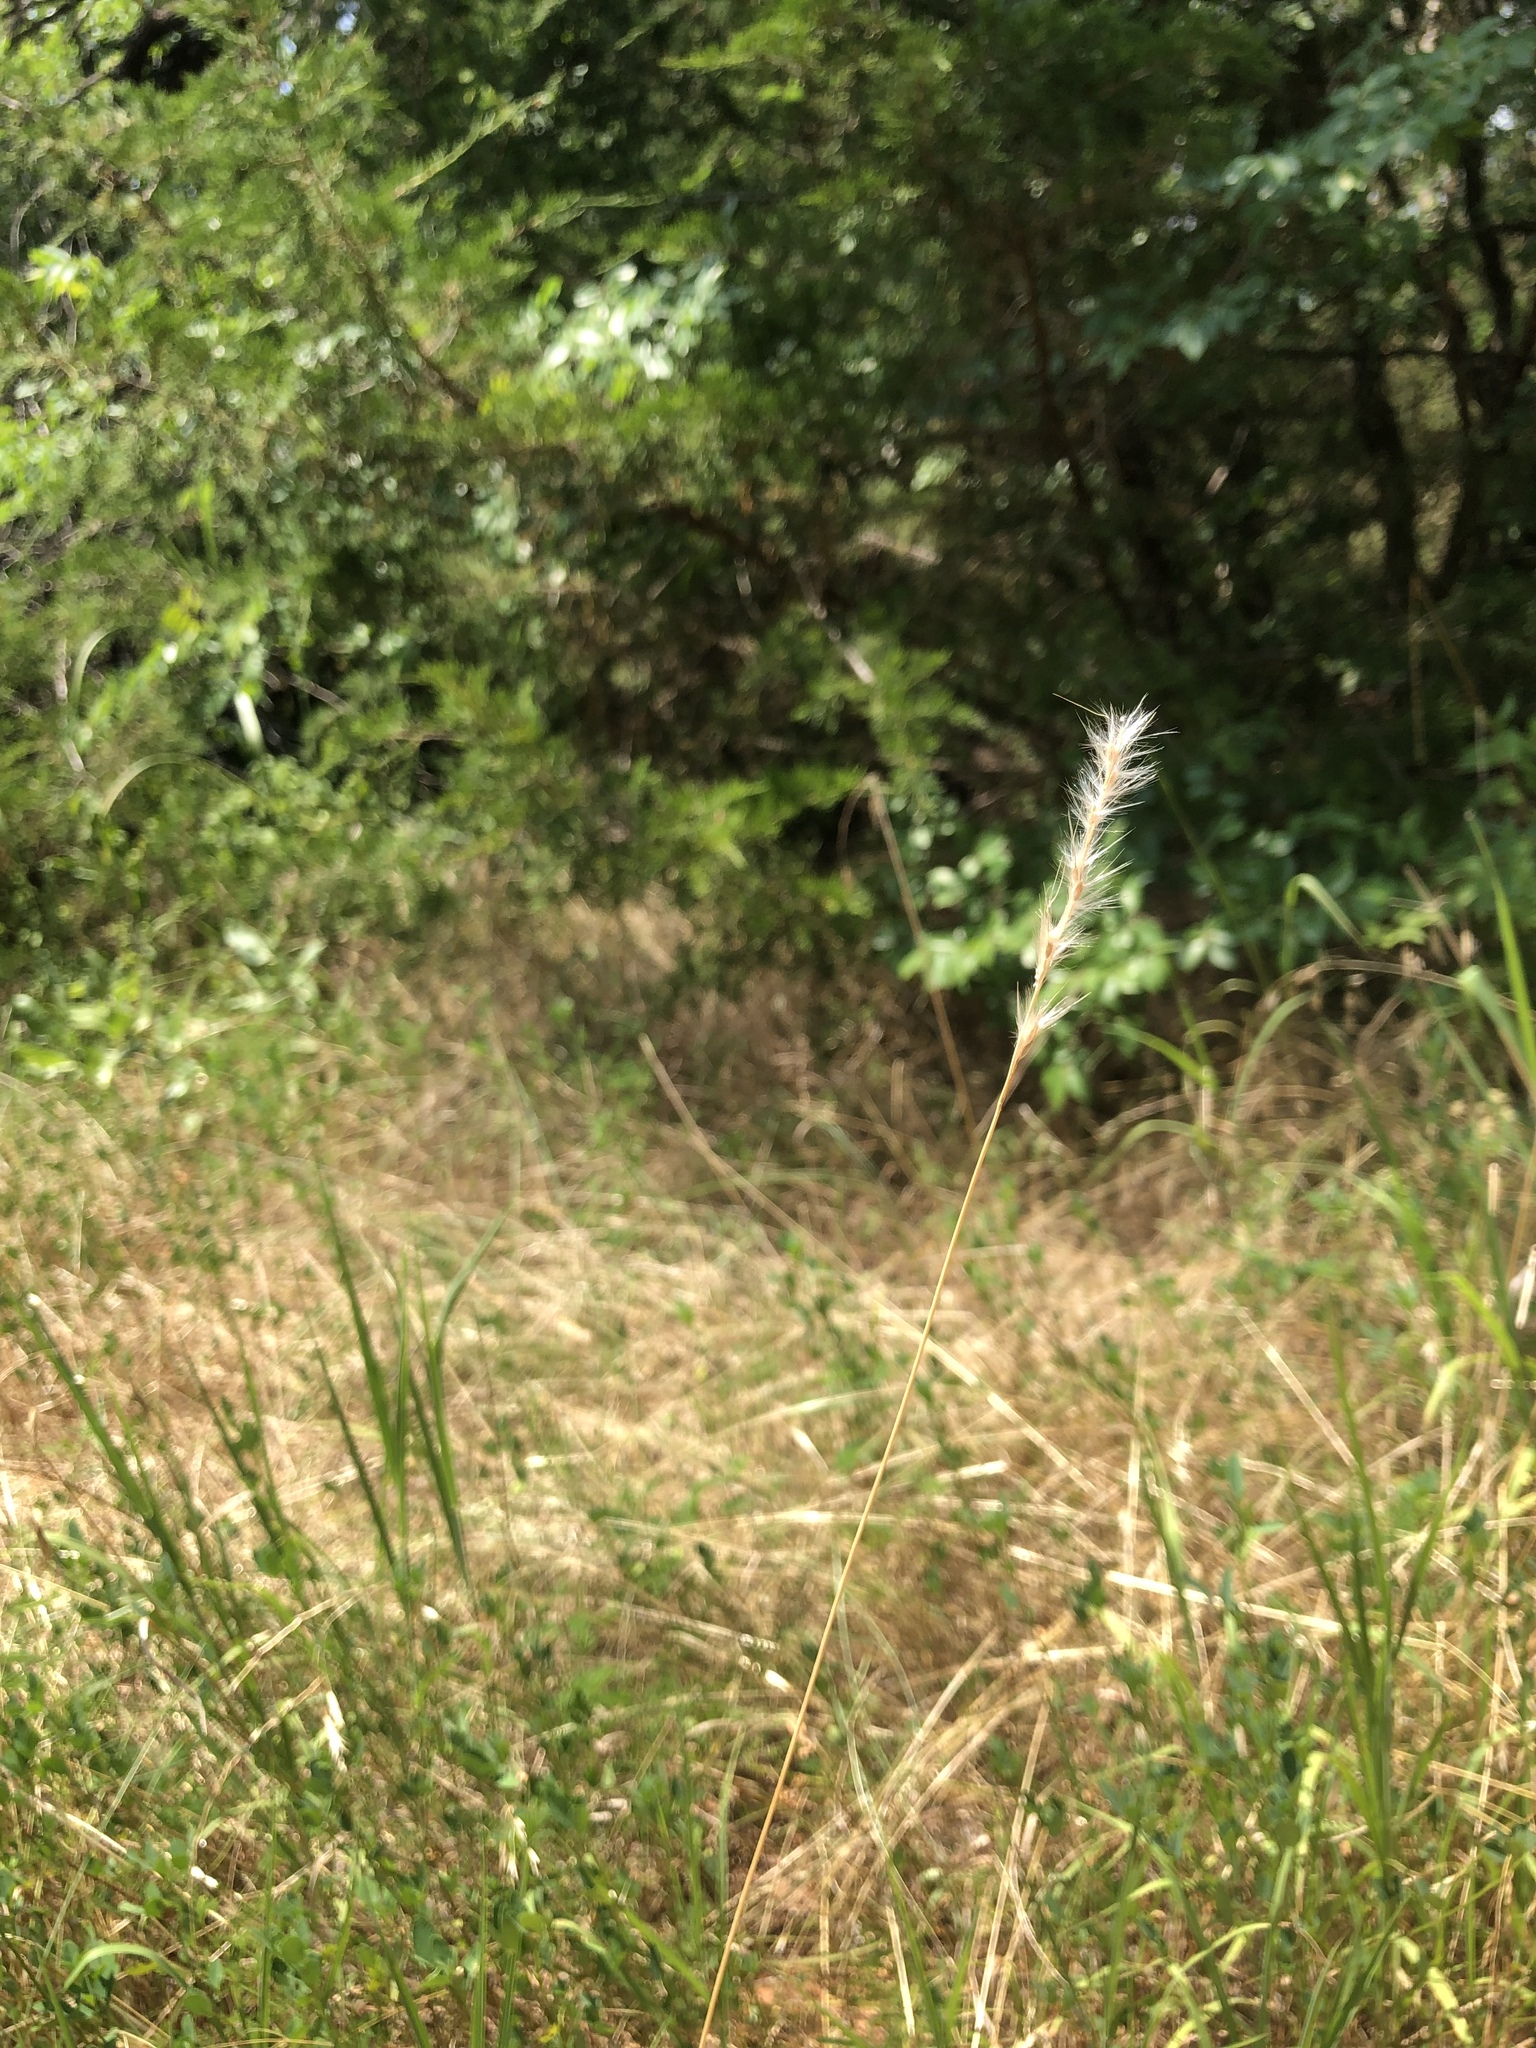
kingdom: Plantae
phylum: Tracheophyta
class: Liliopsida
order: Poales
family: Poaceae
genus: Bothriochloa
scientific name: Bothriochloa torreyana
